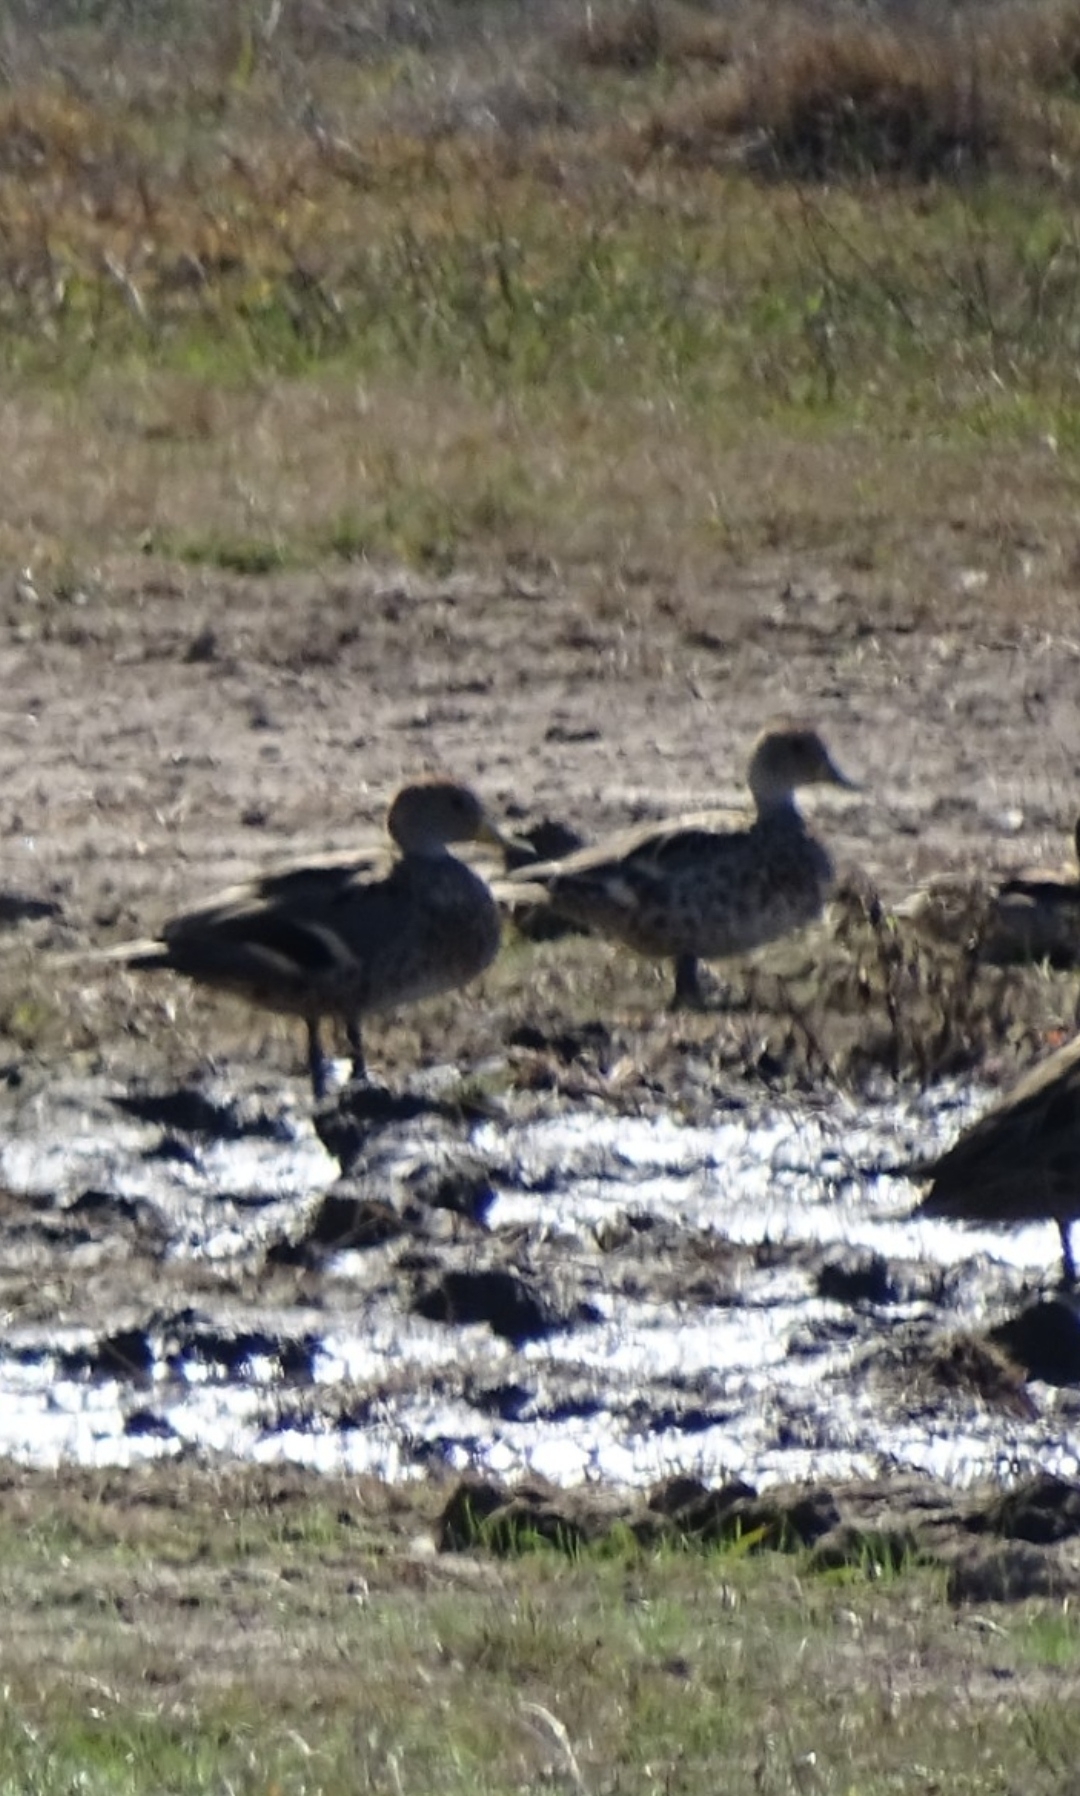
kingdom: Animalia
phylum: Chordata
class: Aves
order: Anseriformes
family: Anatidae
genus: Anas
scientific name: Anas georgica
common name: Yellow-billed pintail
